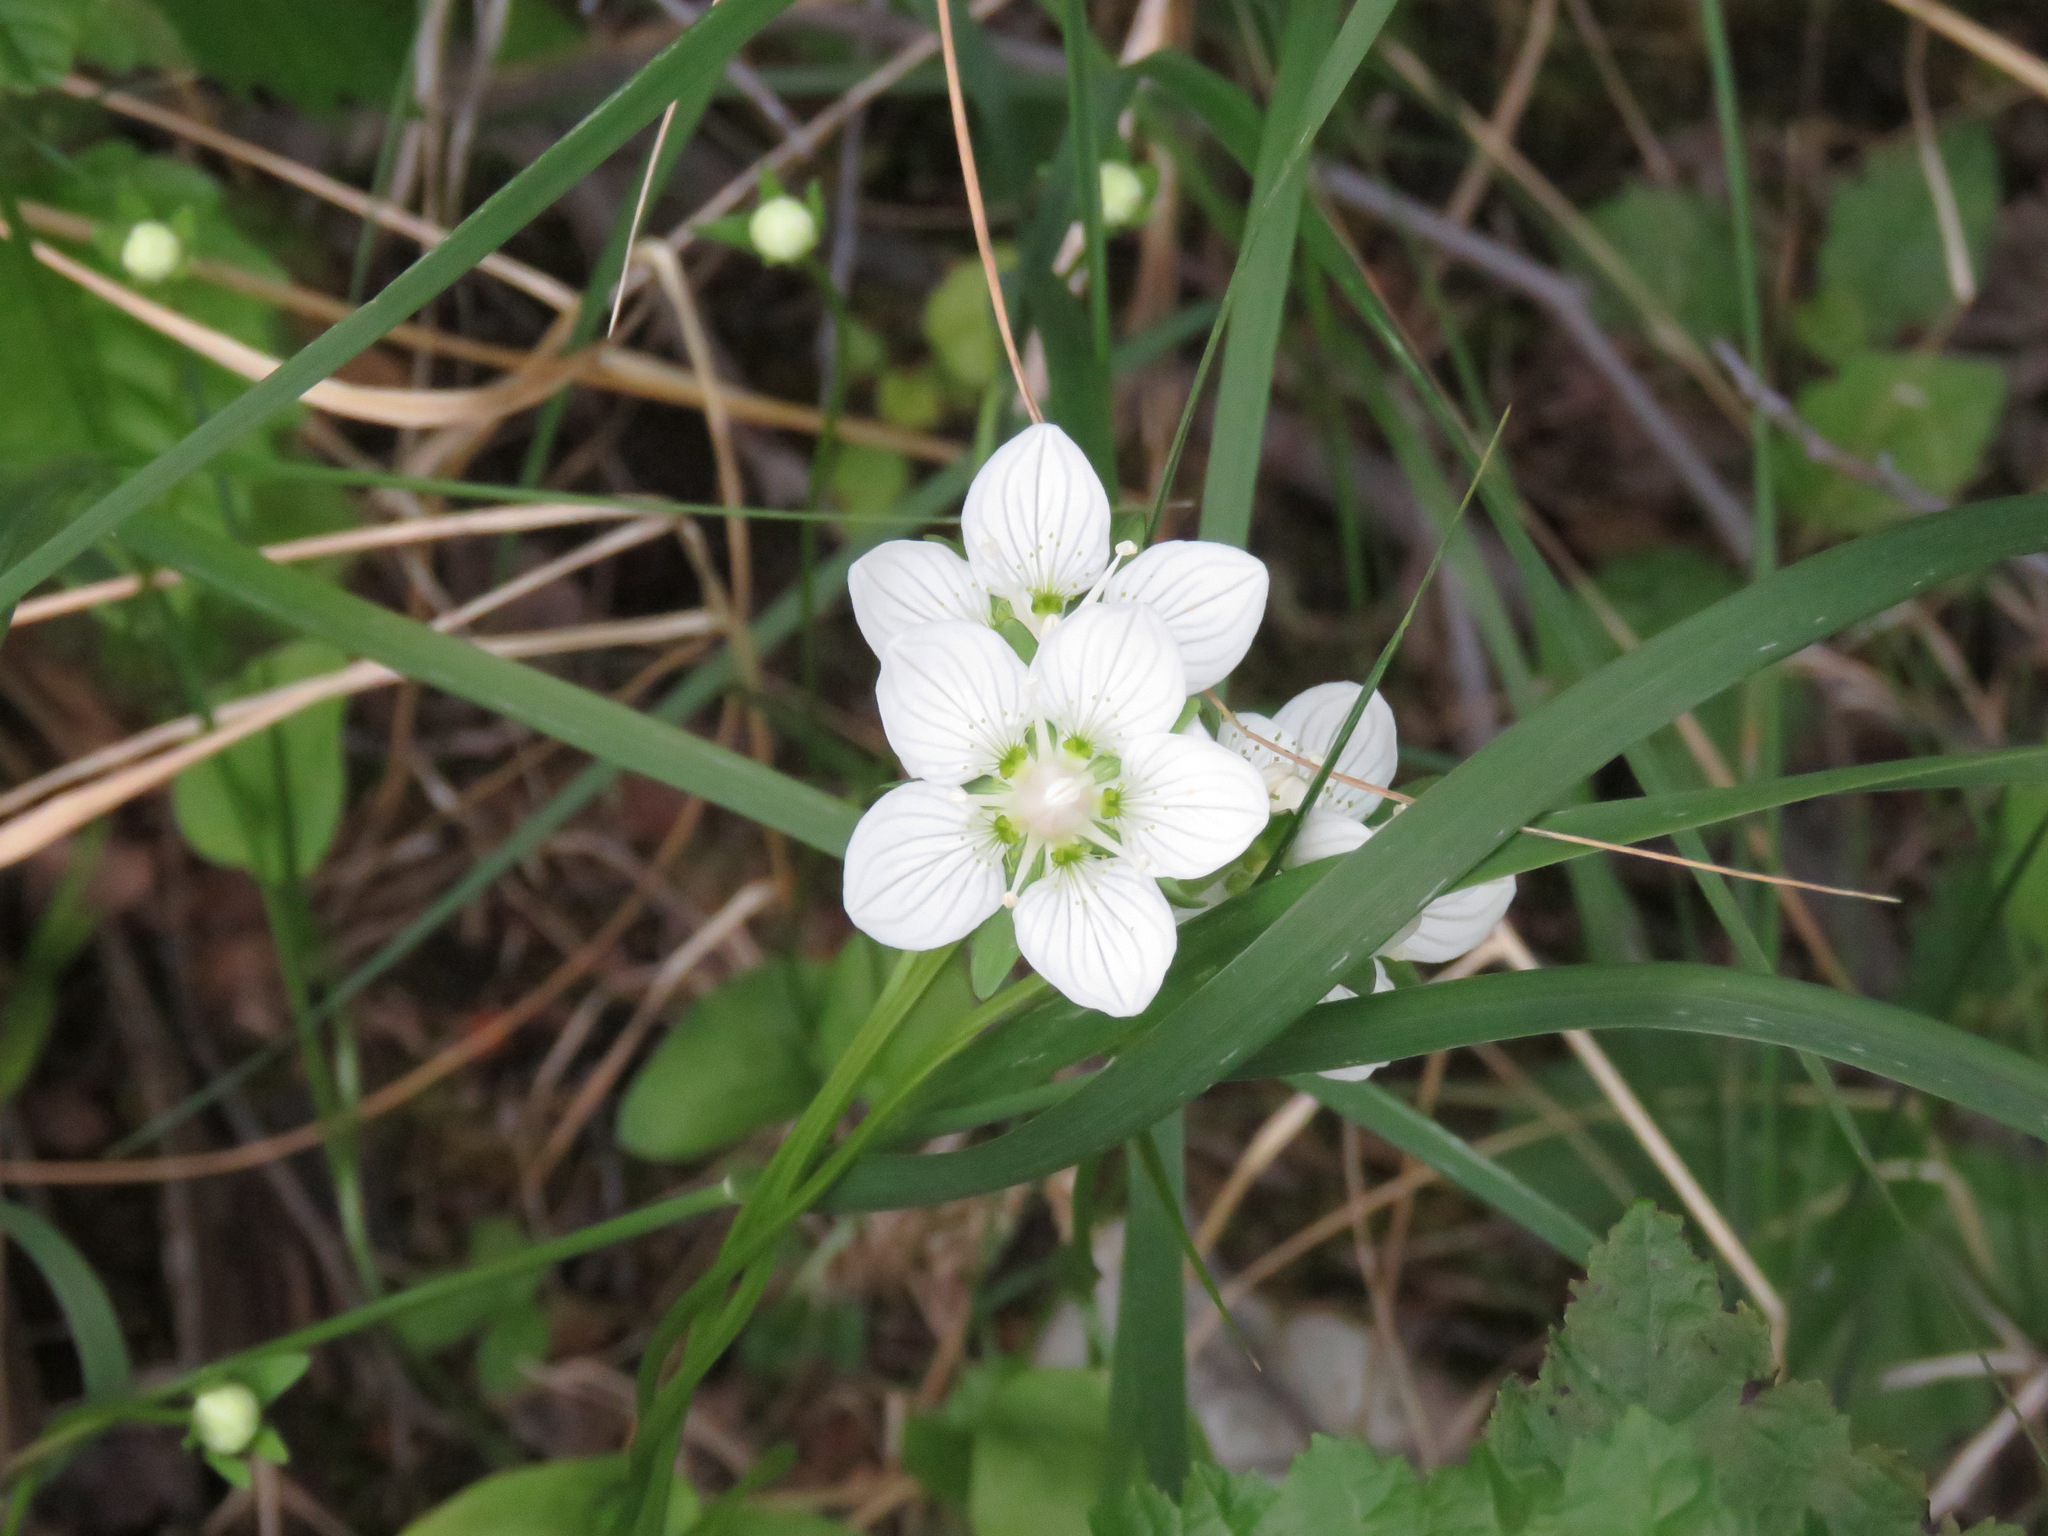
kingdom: Plantae
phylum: Tracheophyta
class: Magnoliopsida
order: Celastrales
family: Parnassiaceae
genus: Parnassia
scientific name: Parnassia palustris
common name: Grass-of-parnassus
